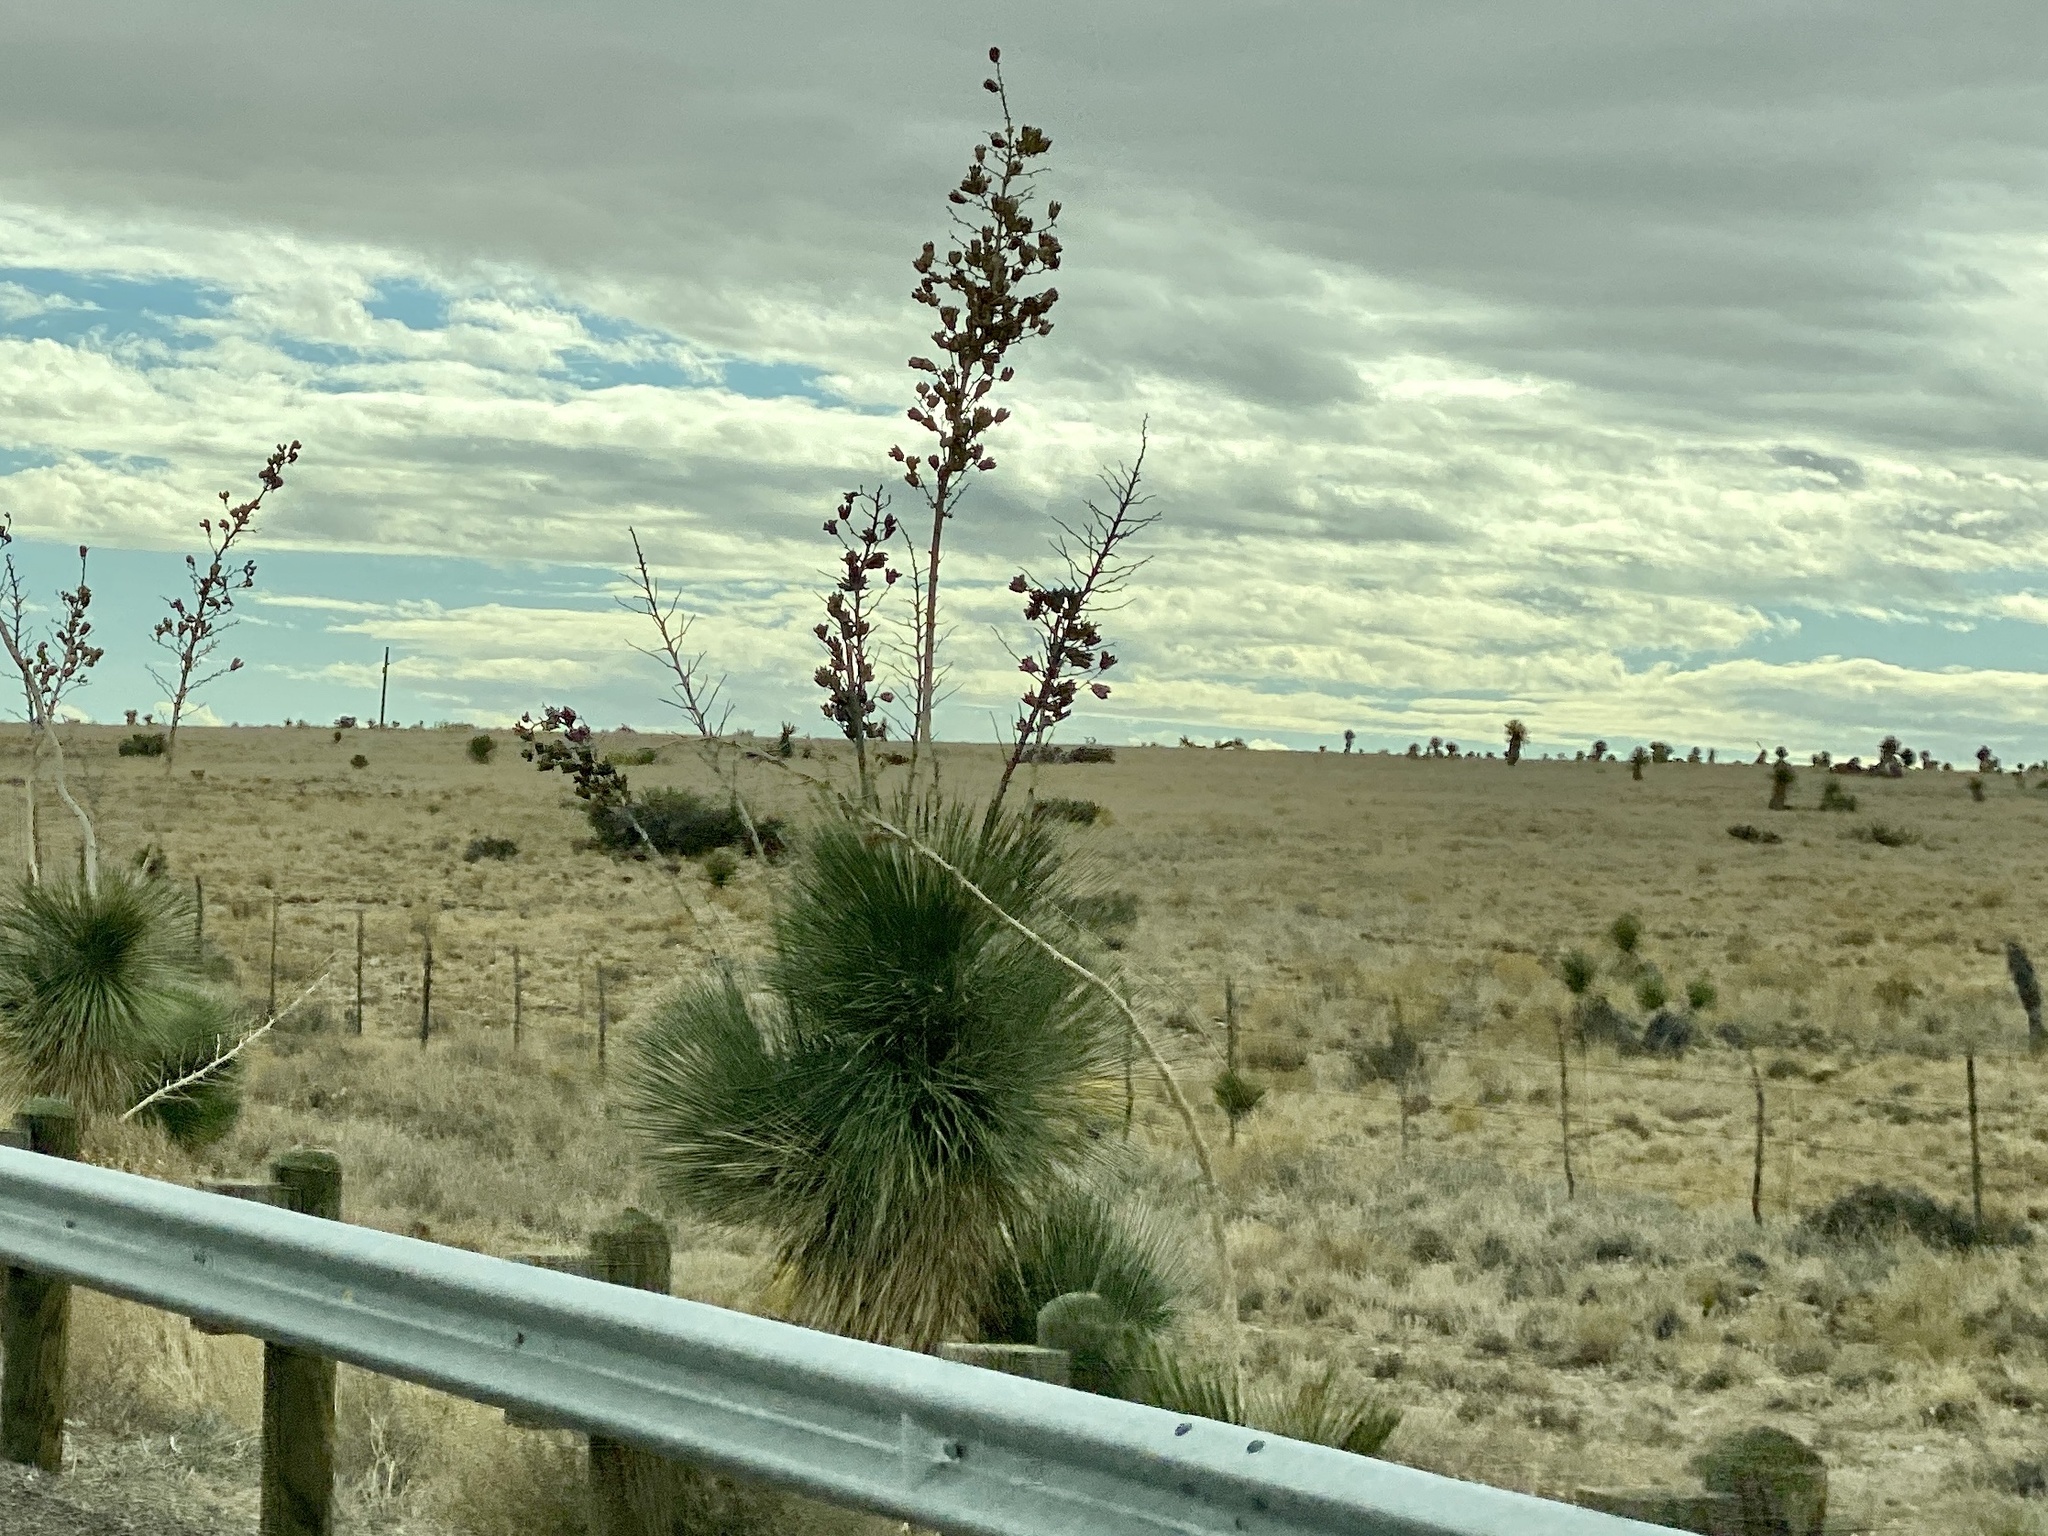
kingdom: Plantae
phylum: Tracheophyta
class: Liliopsida
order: Asparagales
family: Asparagaceae
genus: Yucca
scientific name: Yucca elata
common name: Palmella
